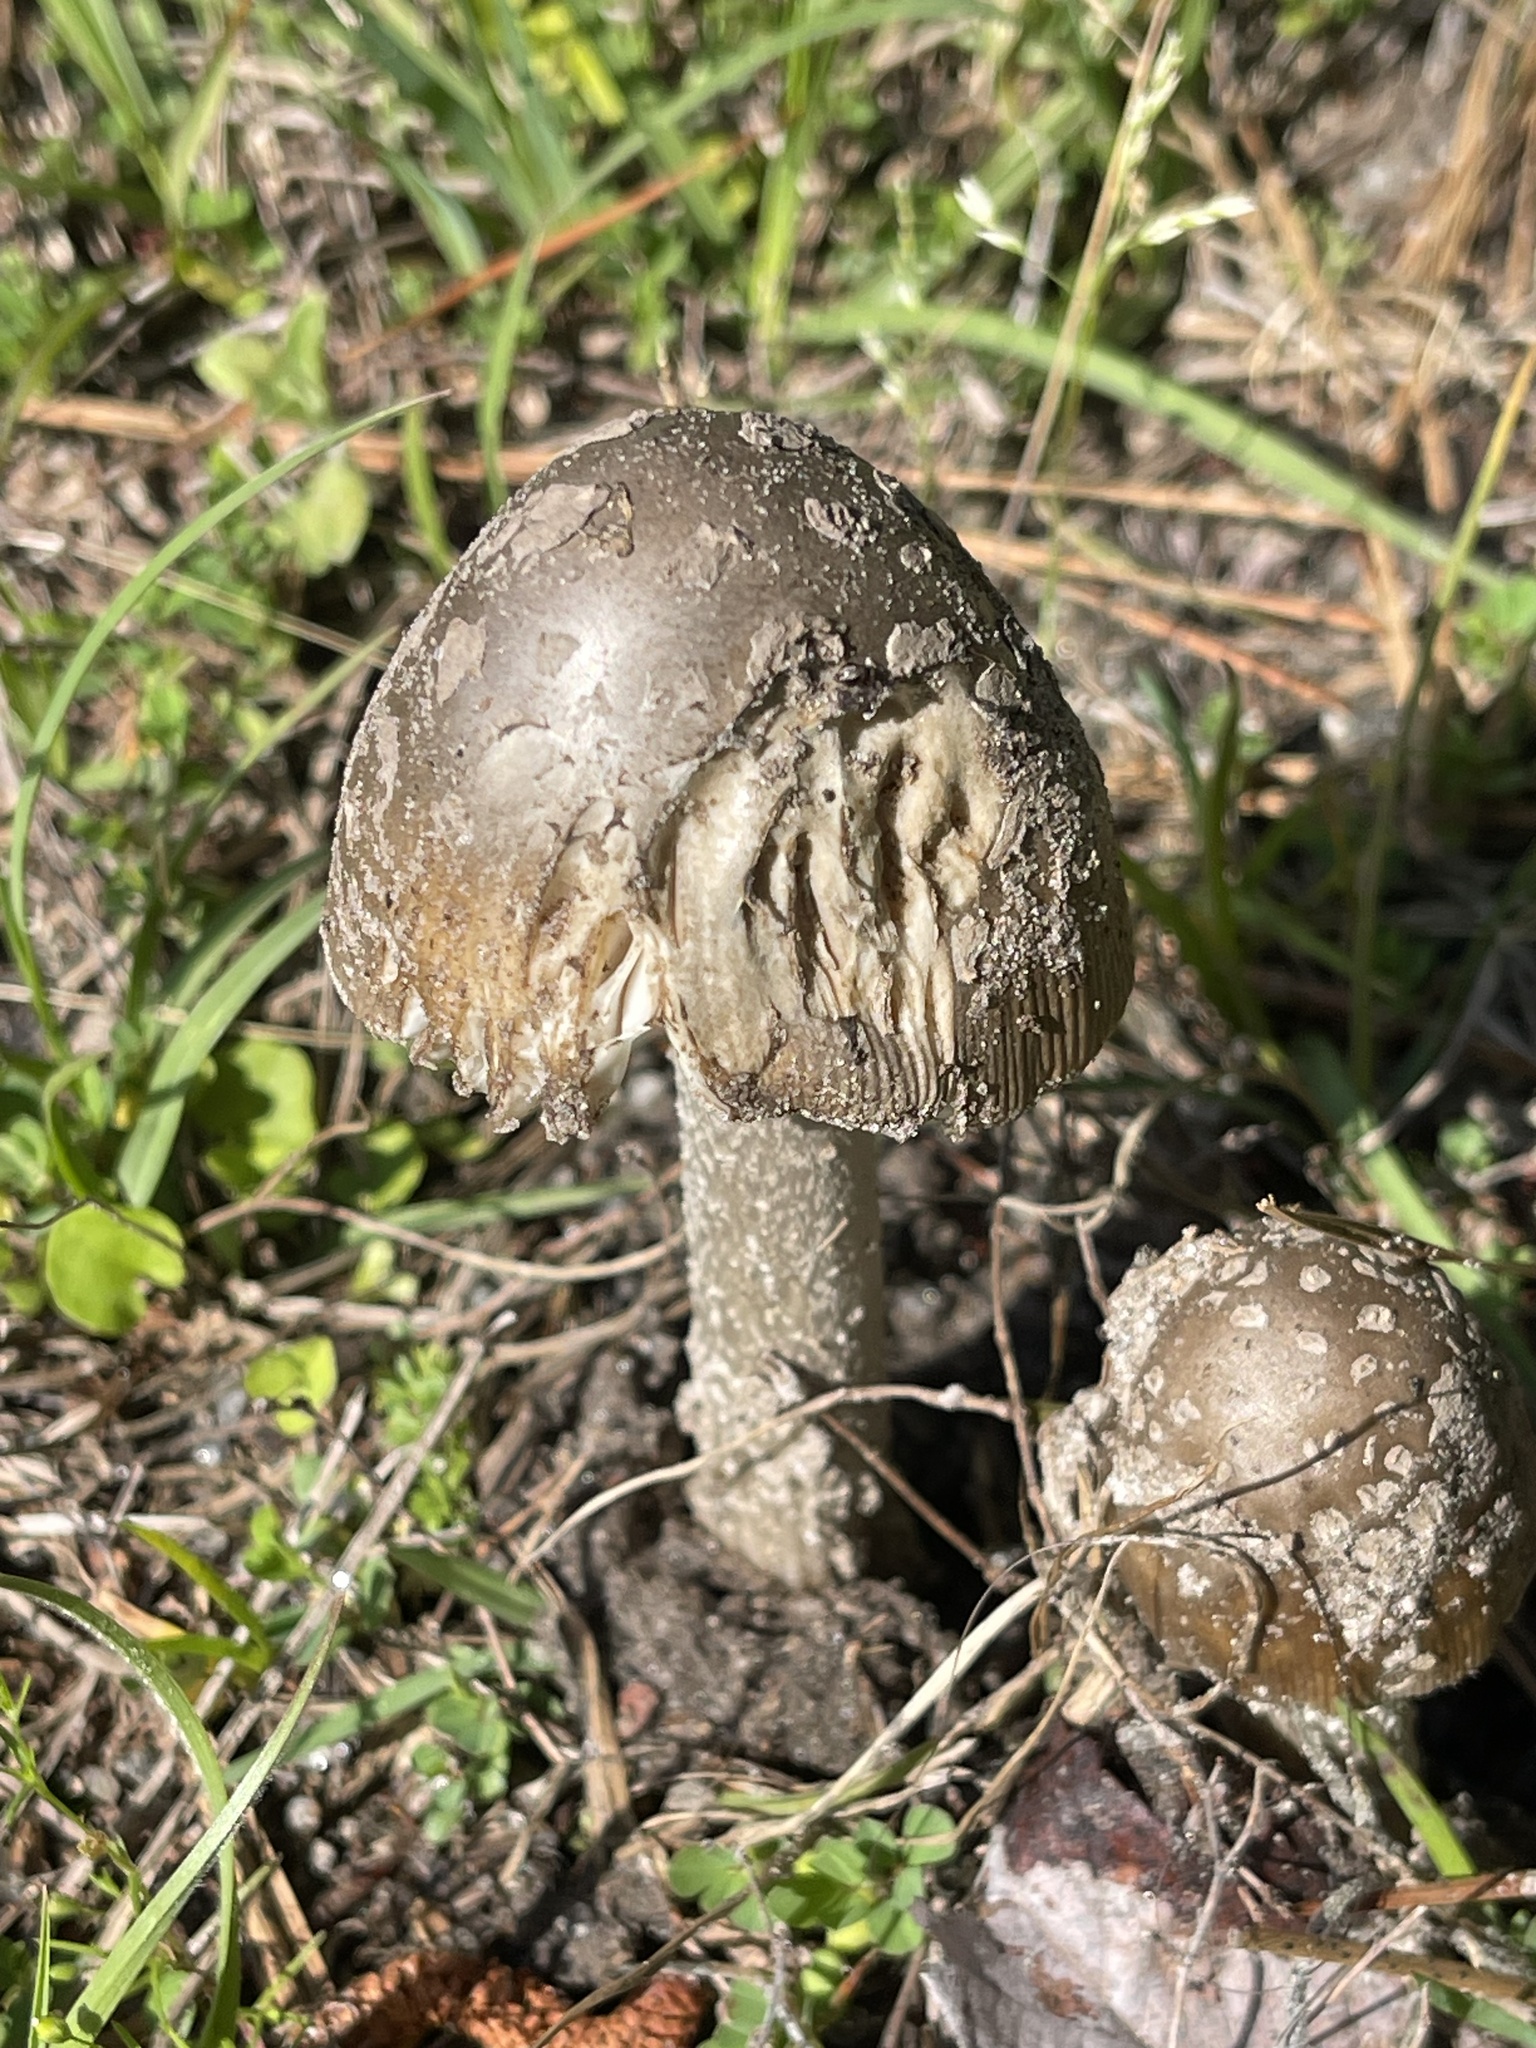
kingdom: Fungi
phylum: Basidiomycota
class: Agaricomycetes
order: Agaricales
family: Amanitaceae
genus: Amanita
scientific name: Amanita rhacopus
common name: Shaggy legged ringless amanita
